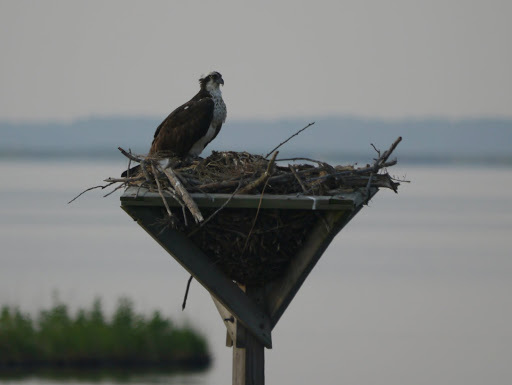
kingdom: Animalia
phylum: Chordata
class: Aves
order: Accipitriformes
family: Pandionidae
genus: Pandion
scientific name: Pandion haliaetus
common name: Osprey
